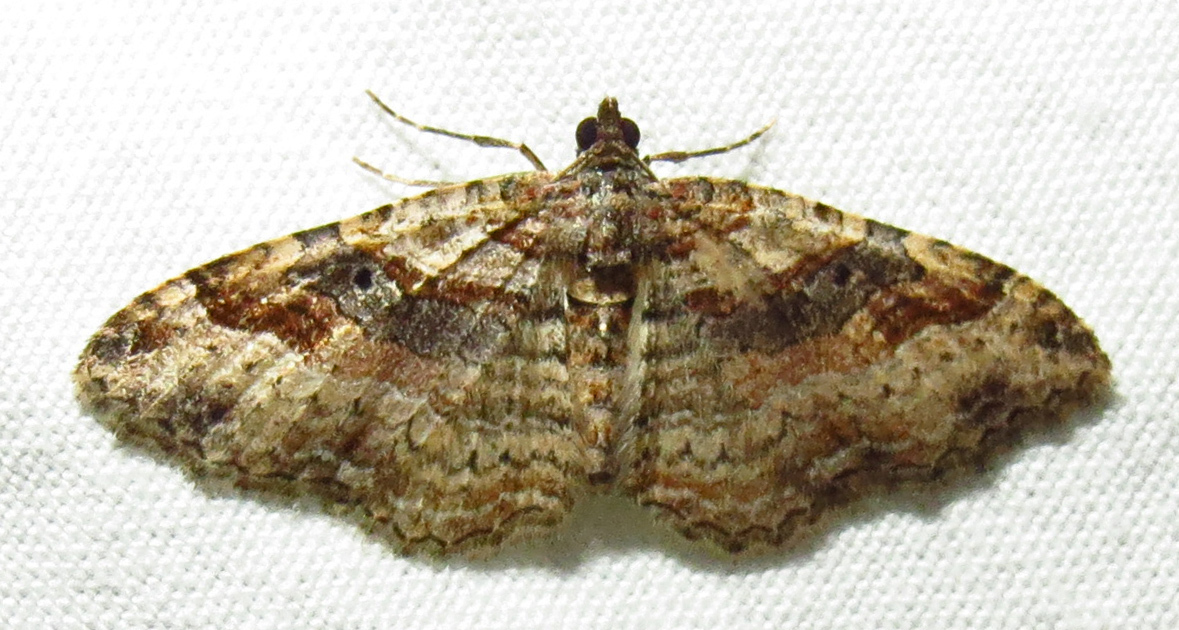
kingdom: Animalia
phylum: Arthropoda
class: Insecta
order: Lepidoptera
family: Geometridae
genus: Costaconvexa
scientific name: Costaconvexa centrostrigaria
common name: Bent-line carpet
